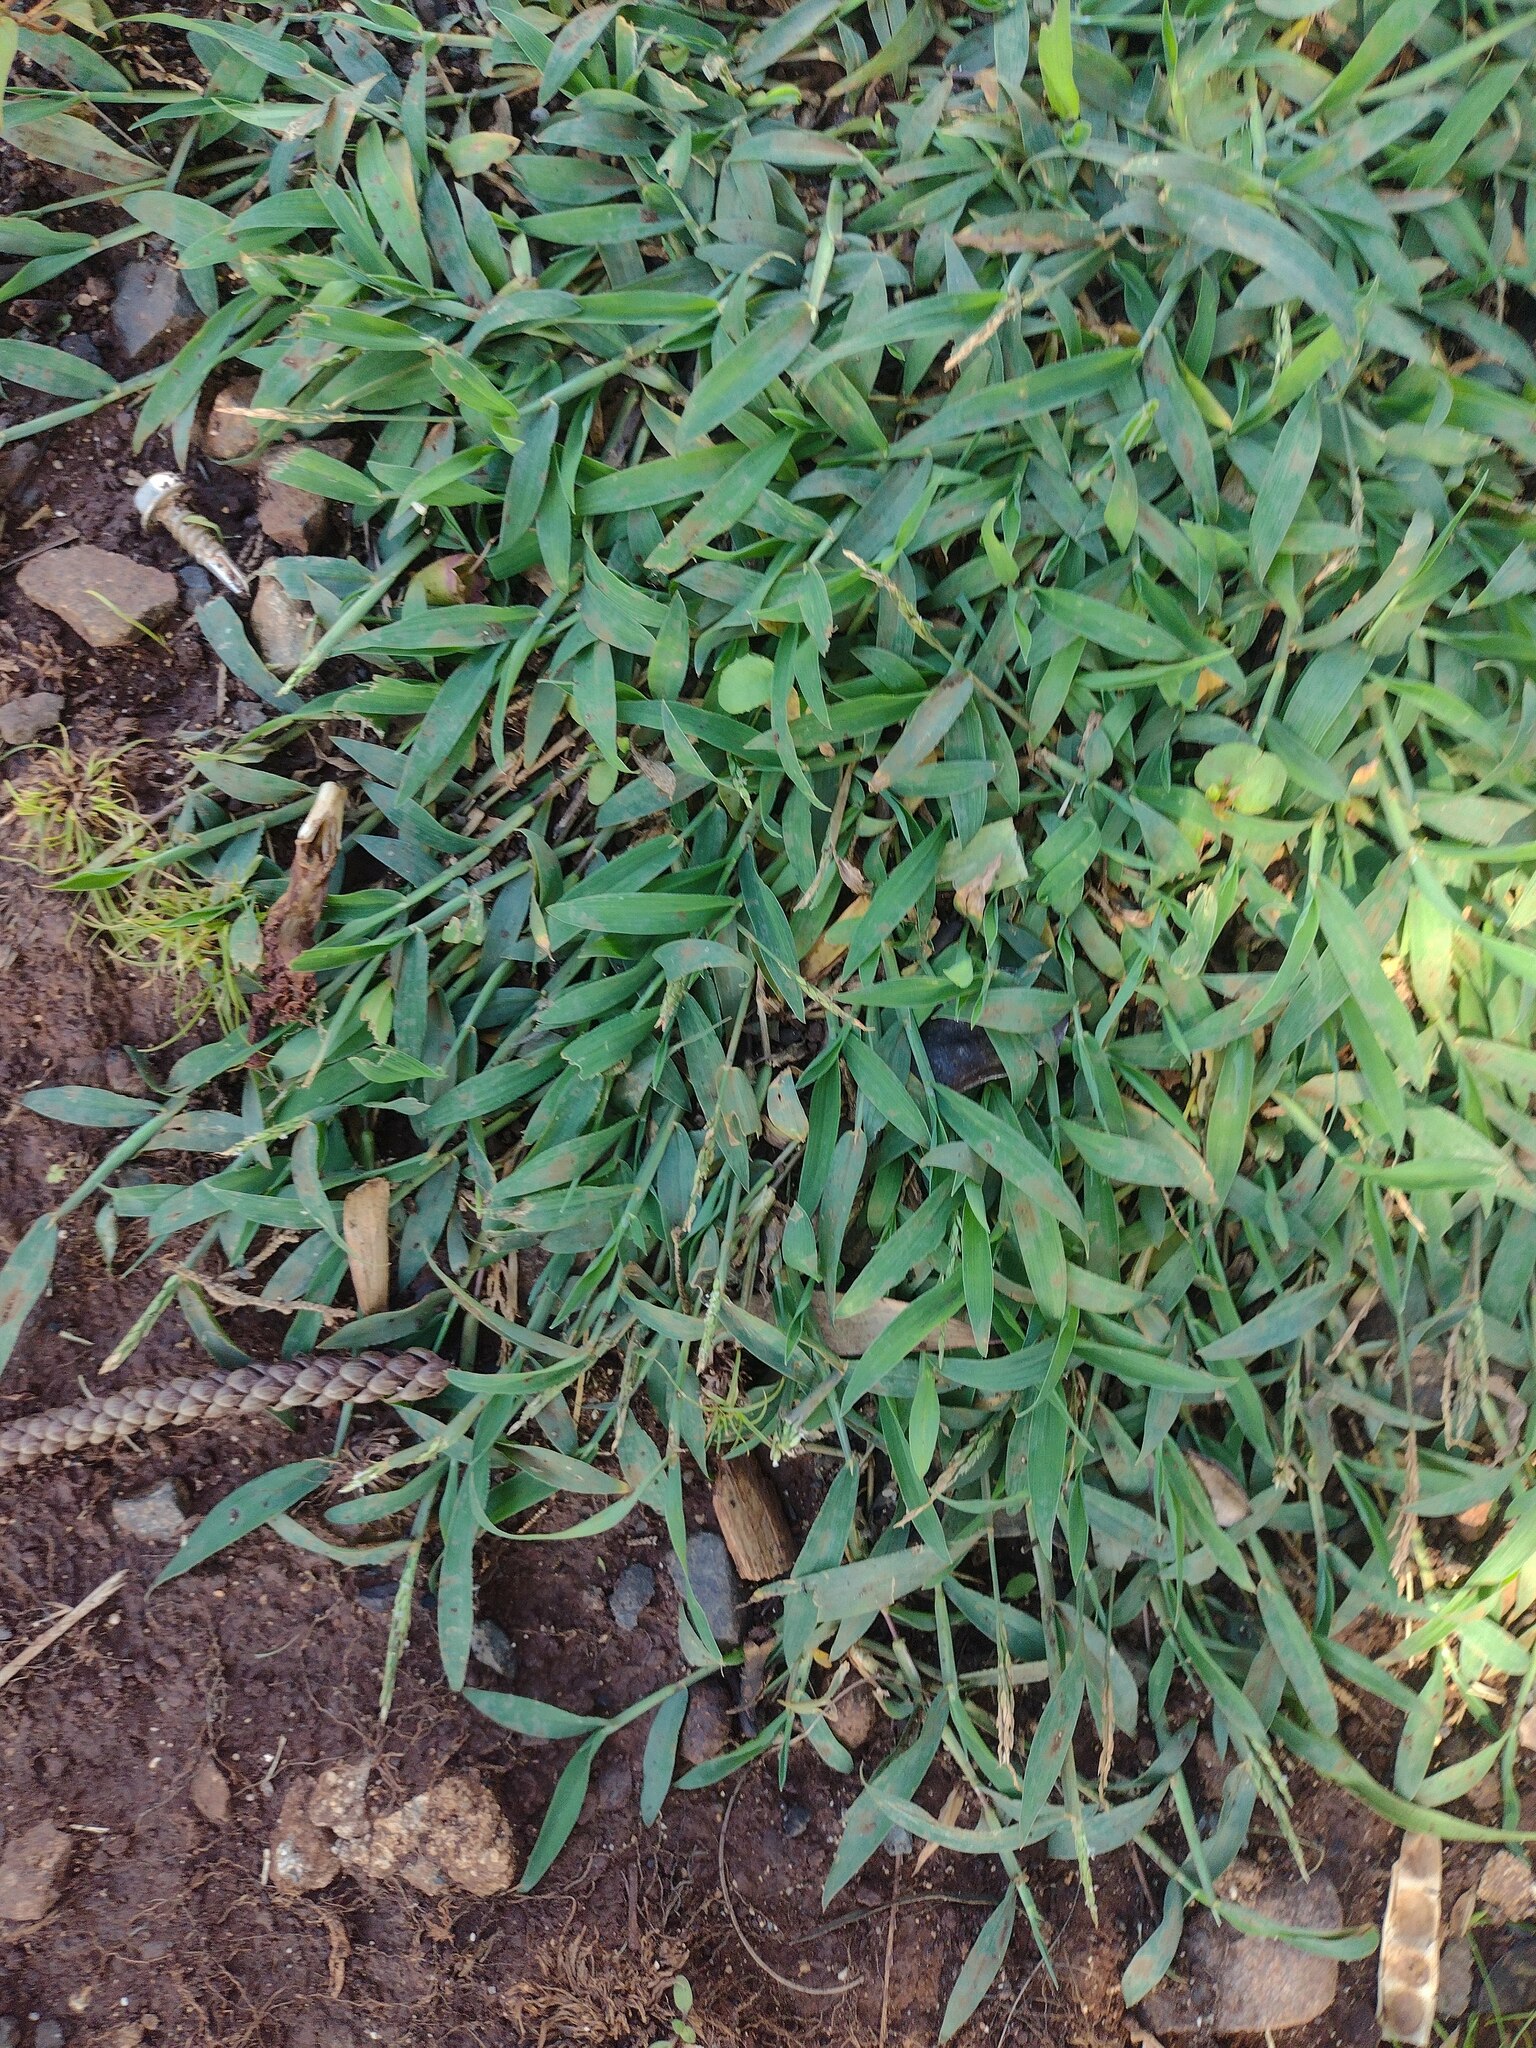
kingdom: Plantae
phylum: Tracheophyta
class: Liliopsida
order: Poales
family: Poaceae
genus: Digitaria
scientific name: Digitaria ciliaris
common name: Tropical finger-grass
